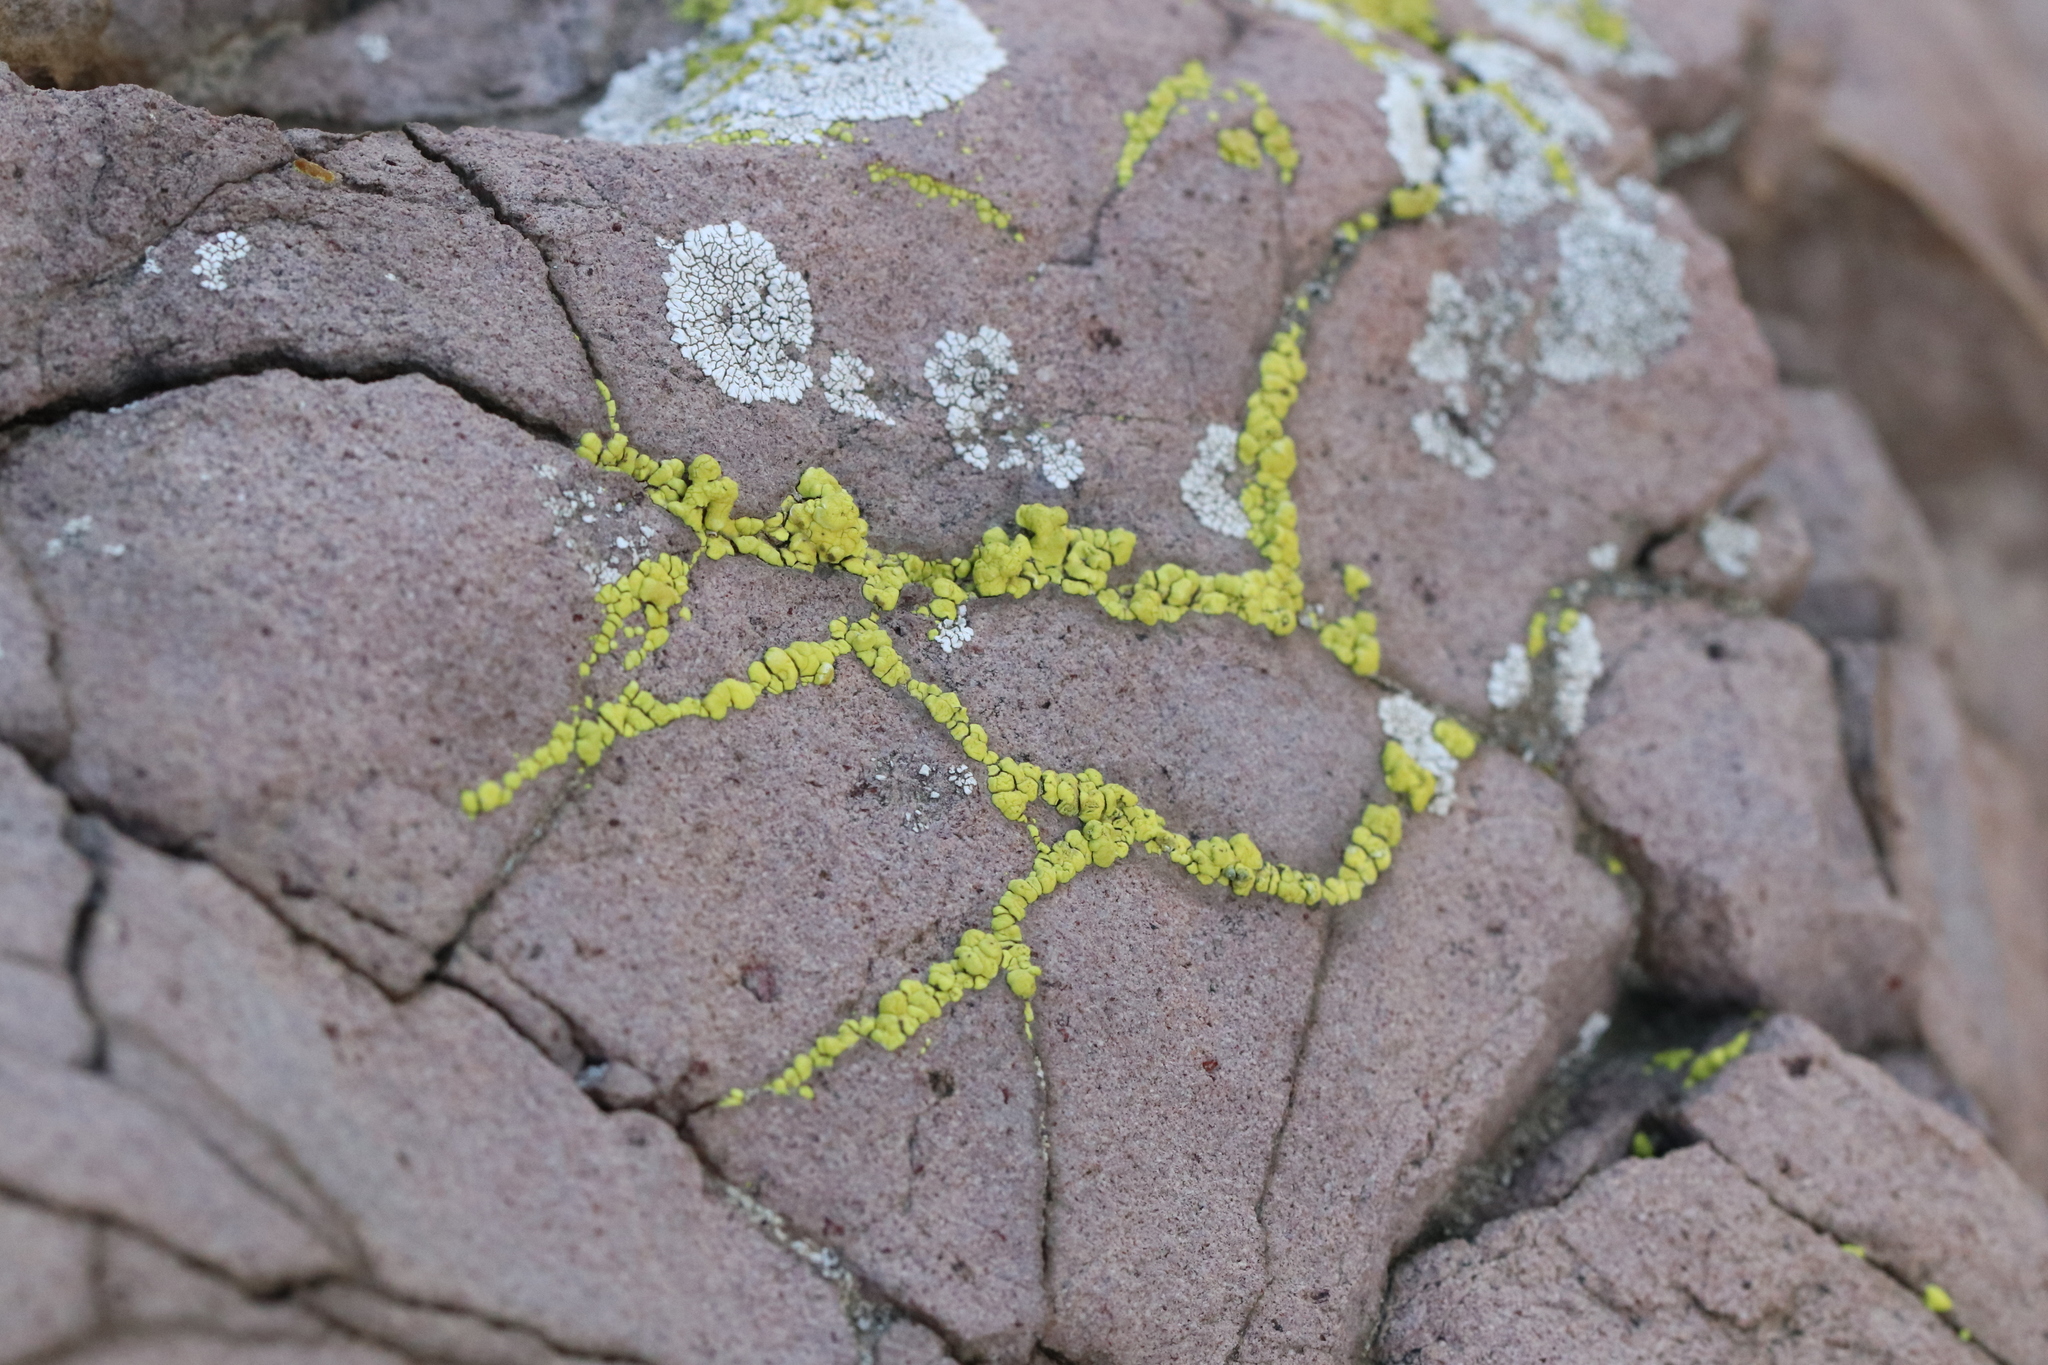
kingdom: Fungi
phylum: Ascomycota
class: Lecanoromycetes
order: Acarosporales
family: Acarosporaceae
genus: Acarospora
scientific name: Acarospora socialis
